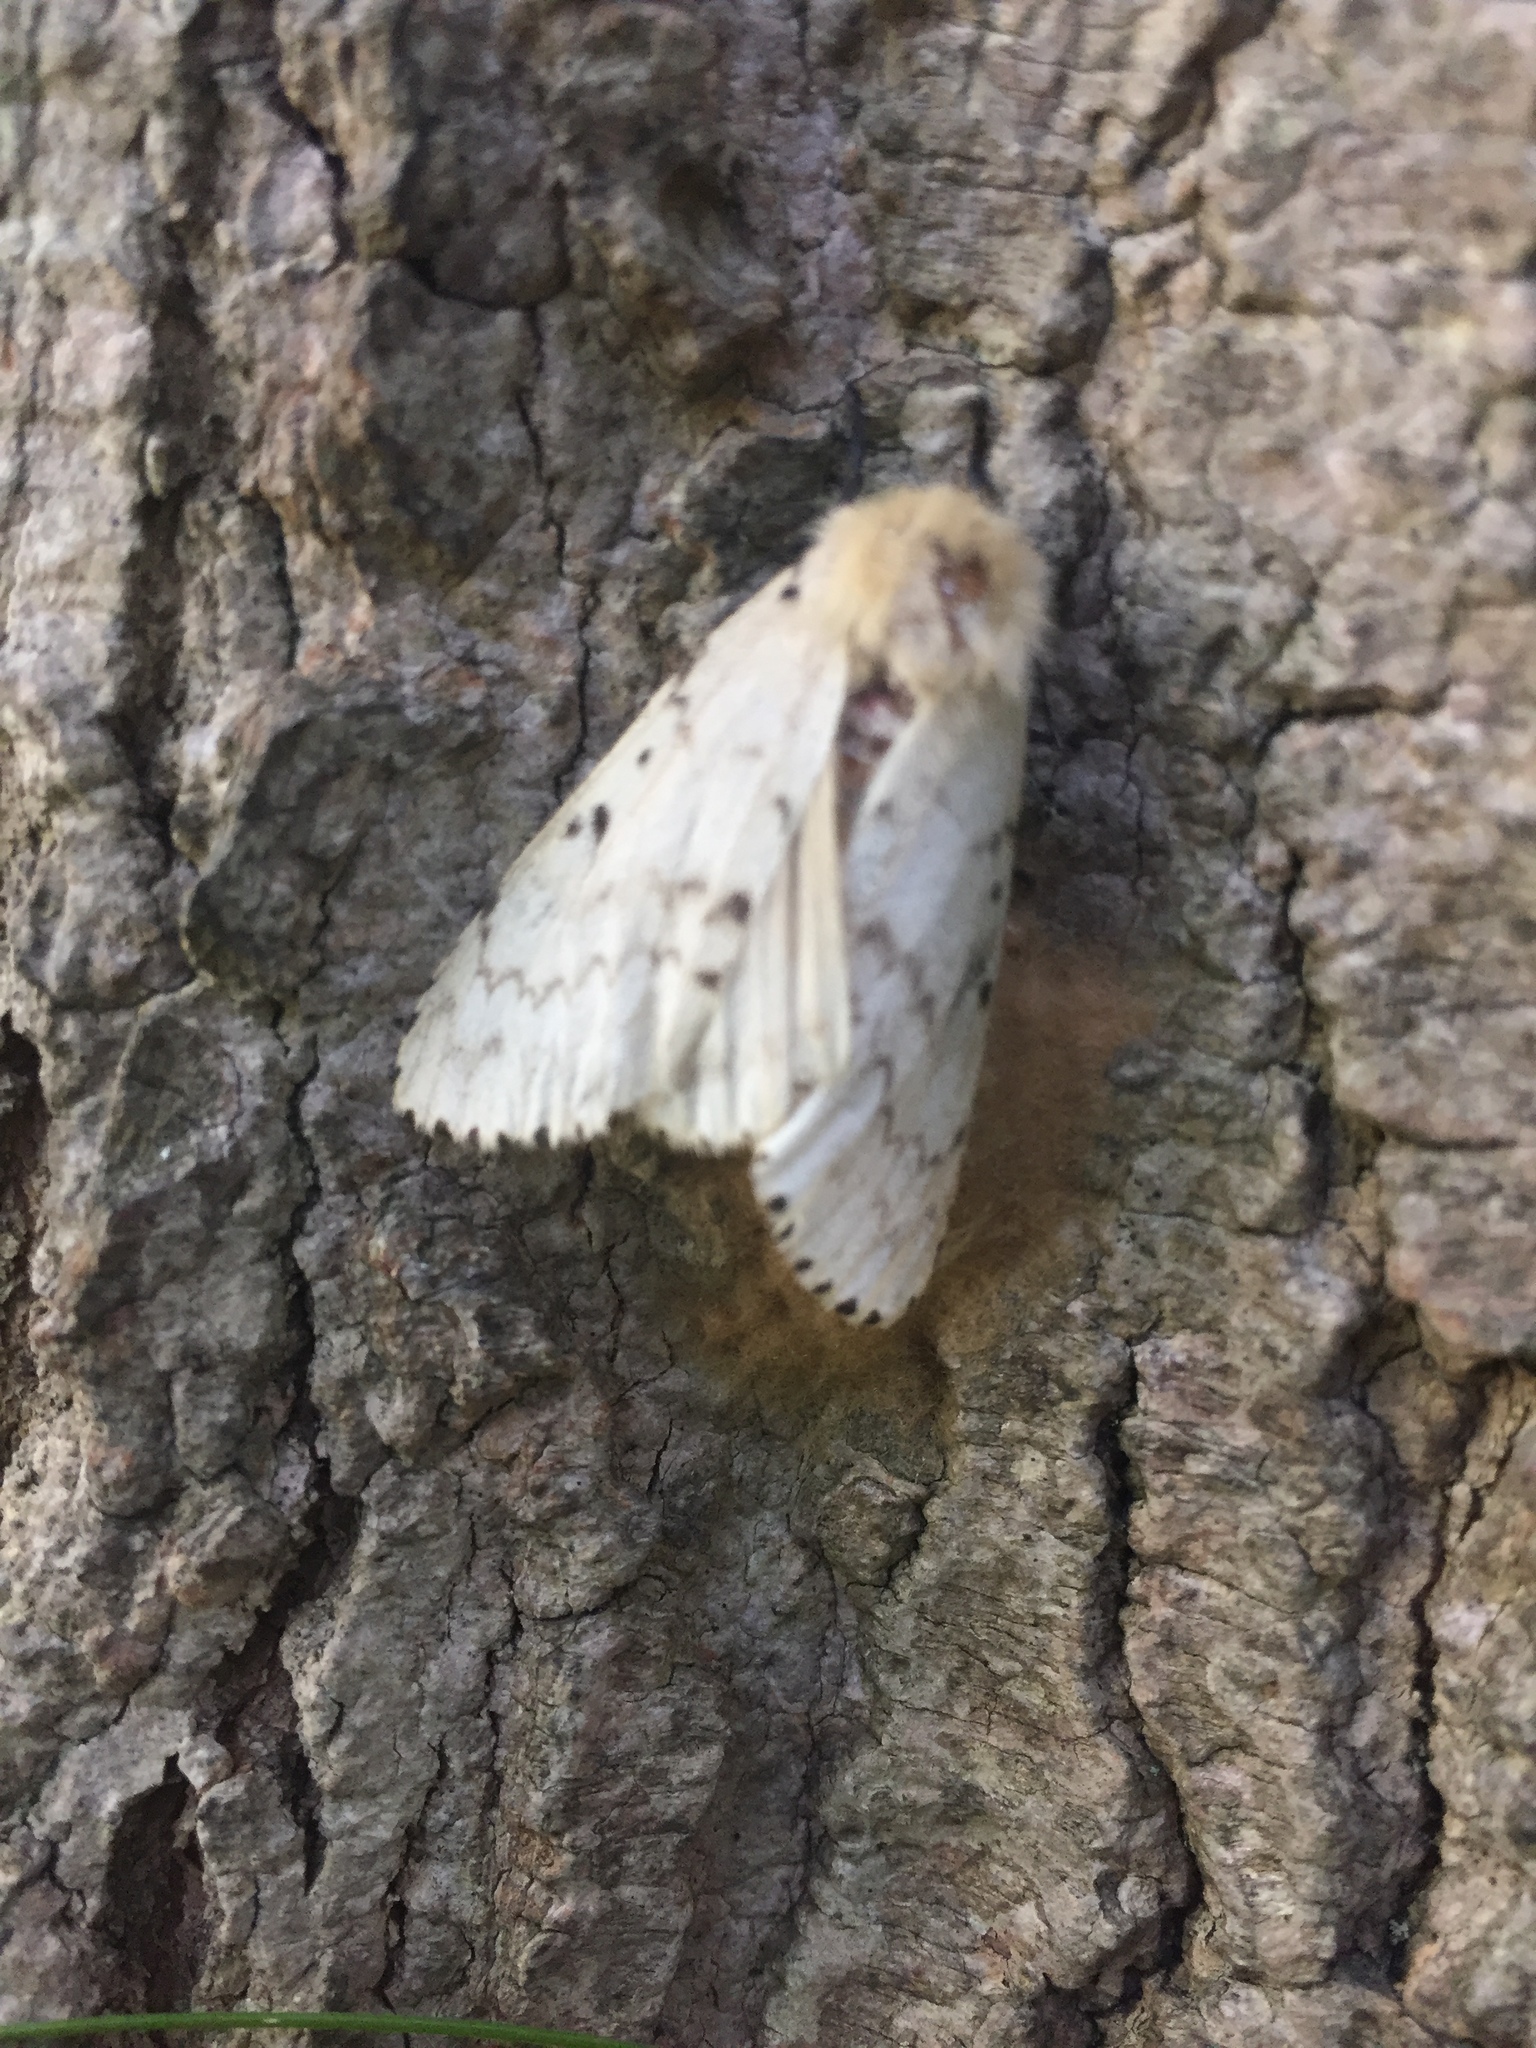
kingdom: Animalia
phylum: Arthropoda
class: Insecta
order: Lepidoptera
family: Erebidae
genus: Lymantria
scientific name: Lymantria dispar
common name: Gypsy moth
